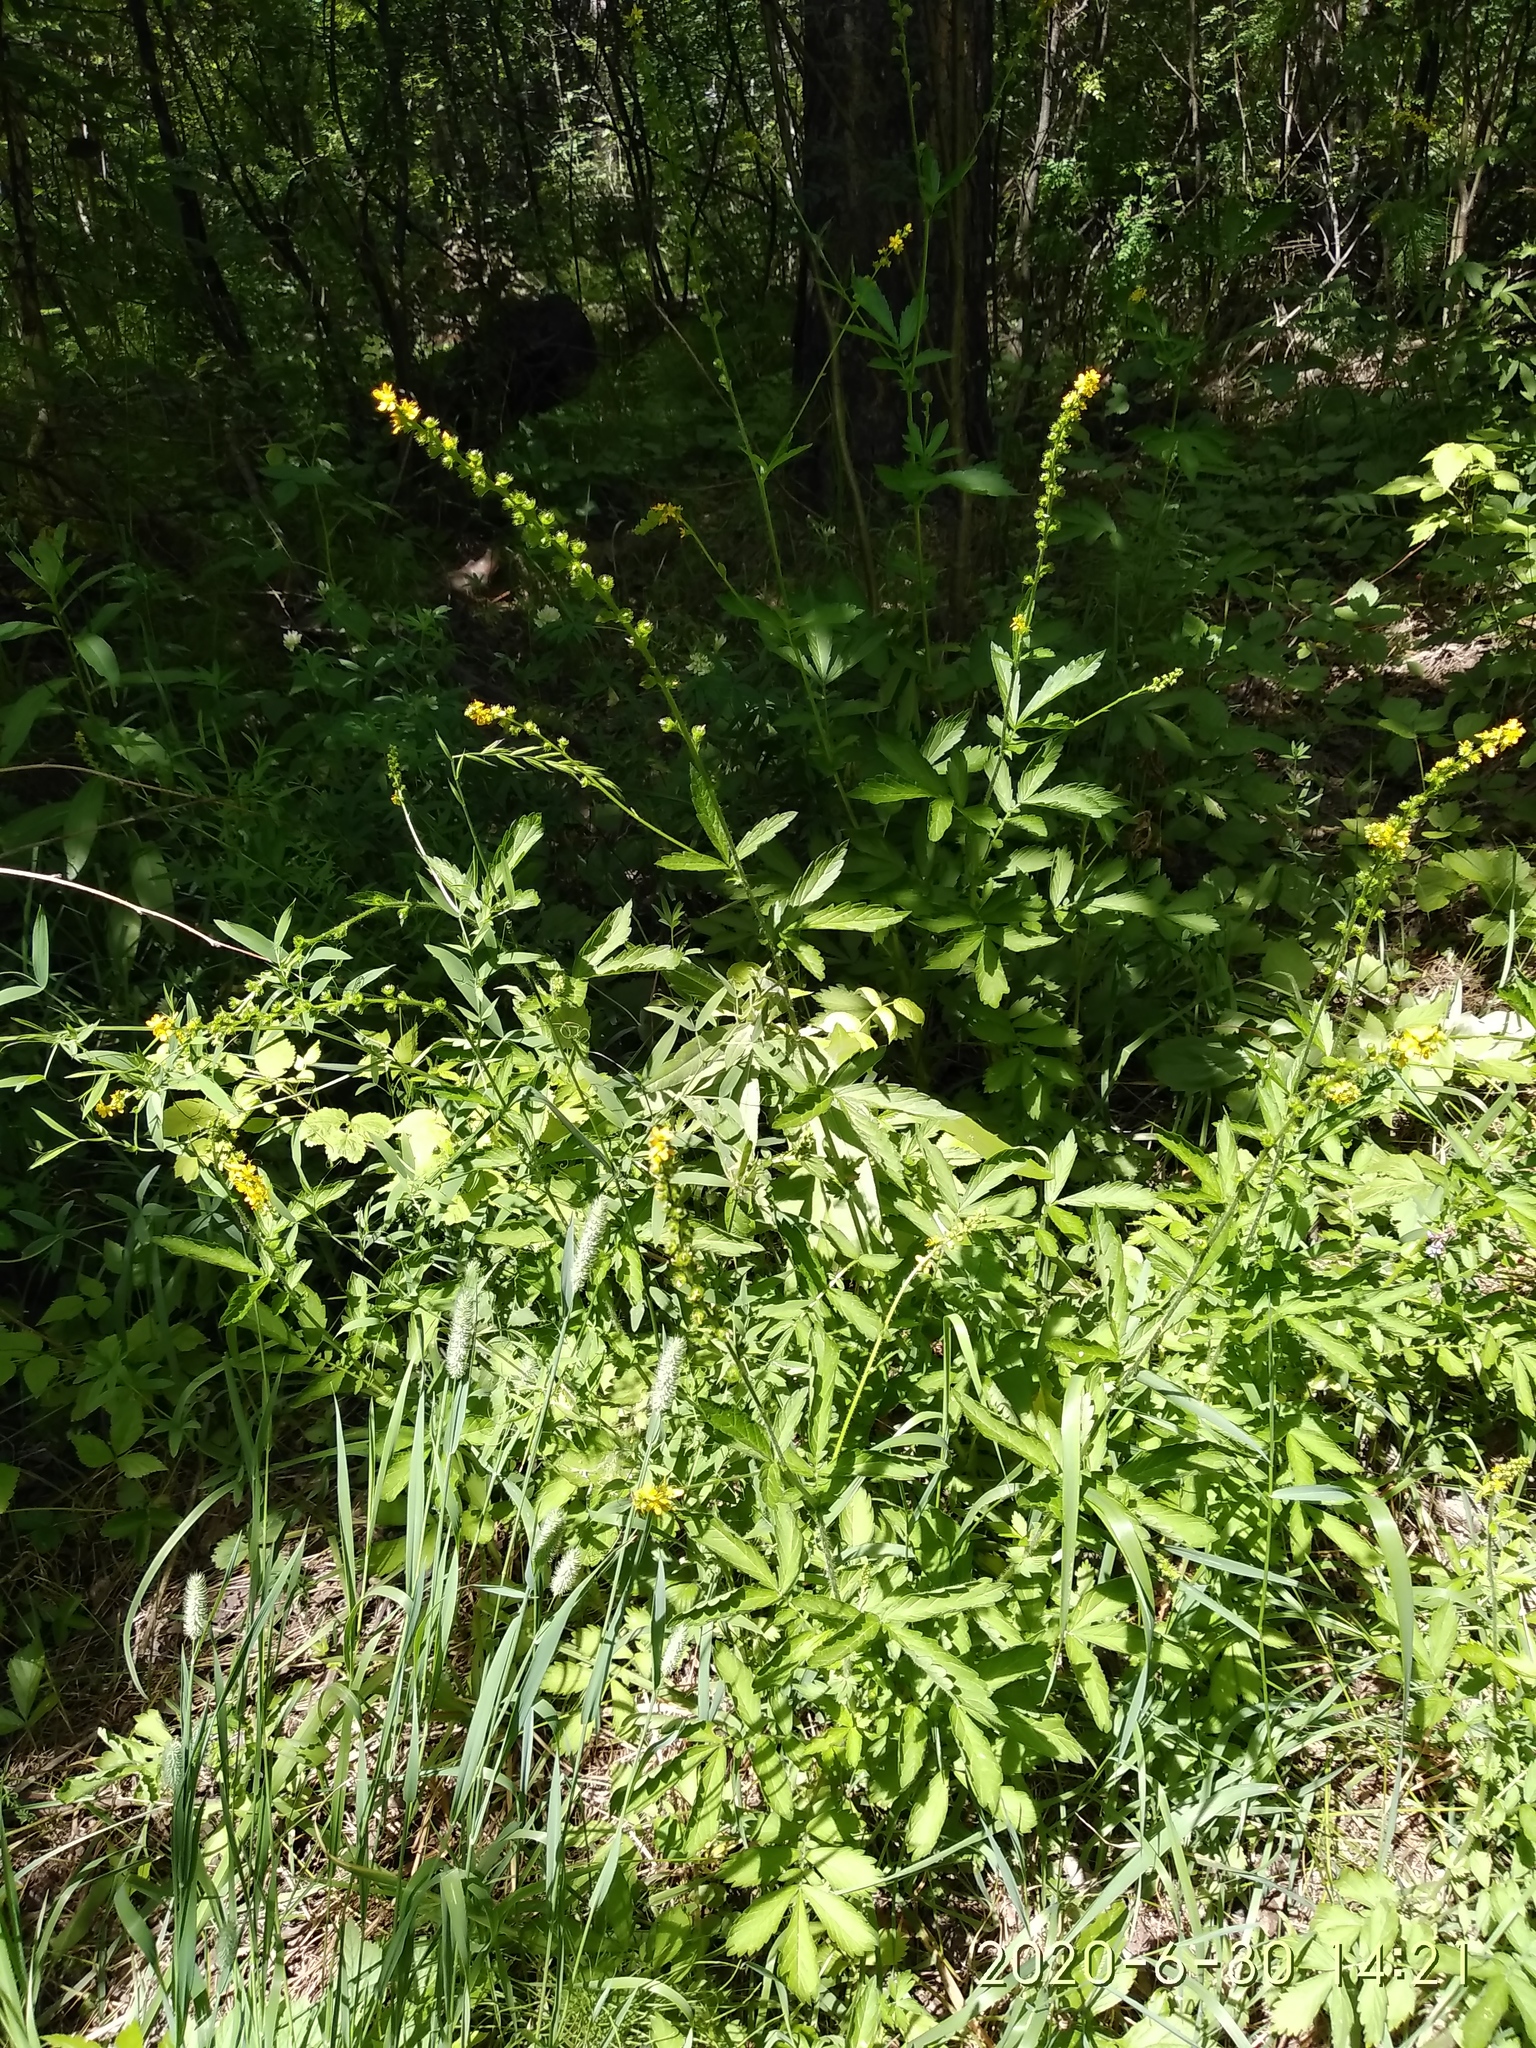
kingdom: Plantae
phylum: Tracheophyta
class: Magnoliopsida
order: Rosales
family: Rosaceae
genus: Agrimonia
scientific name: Agrimonia pilosa
